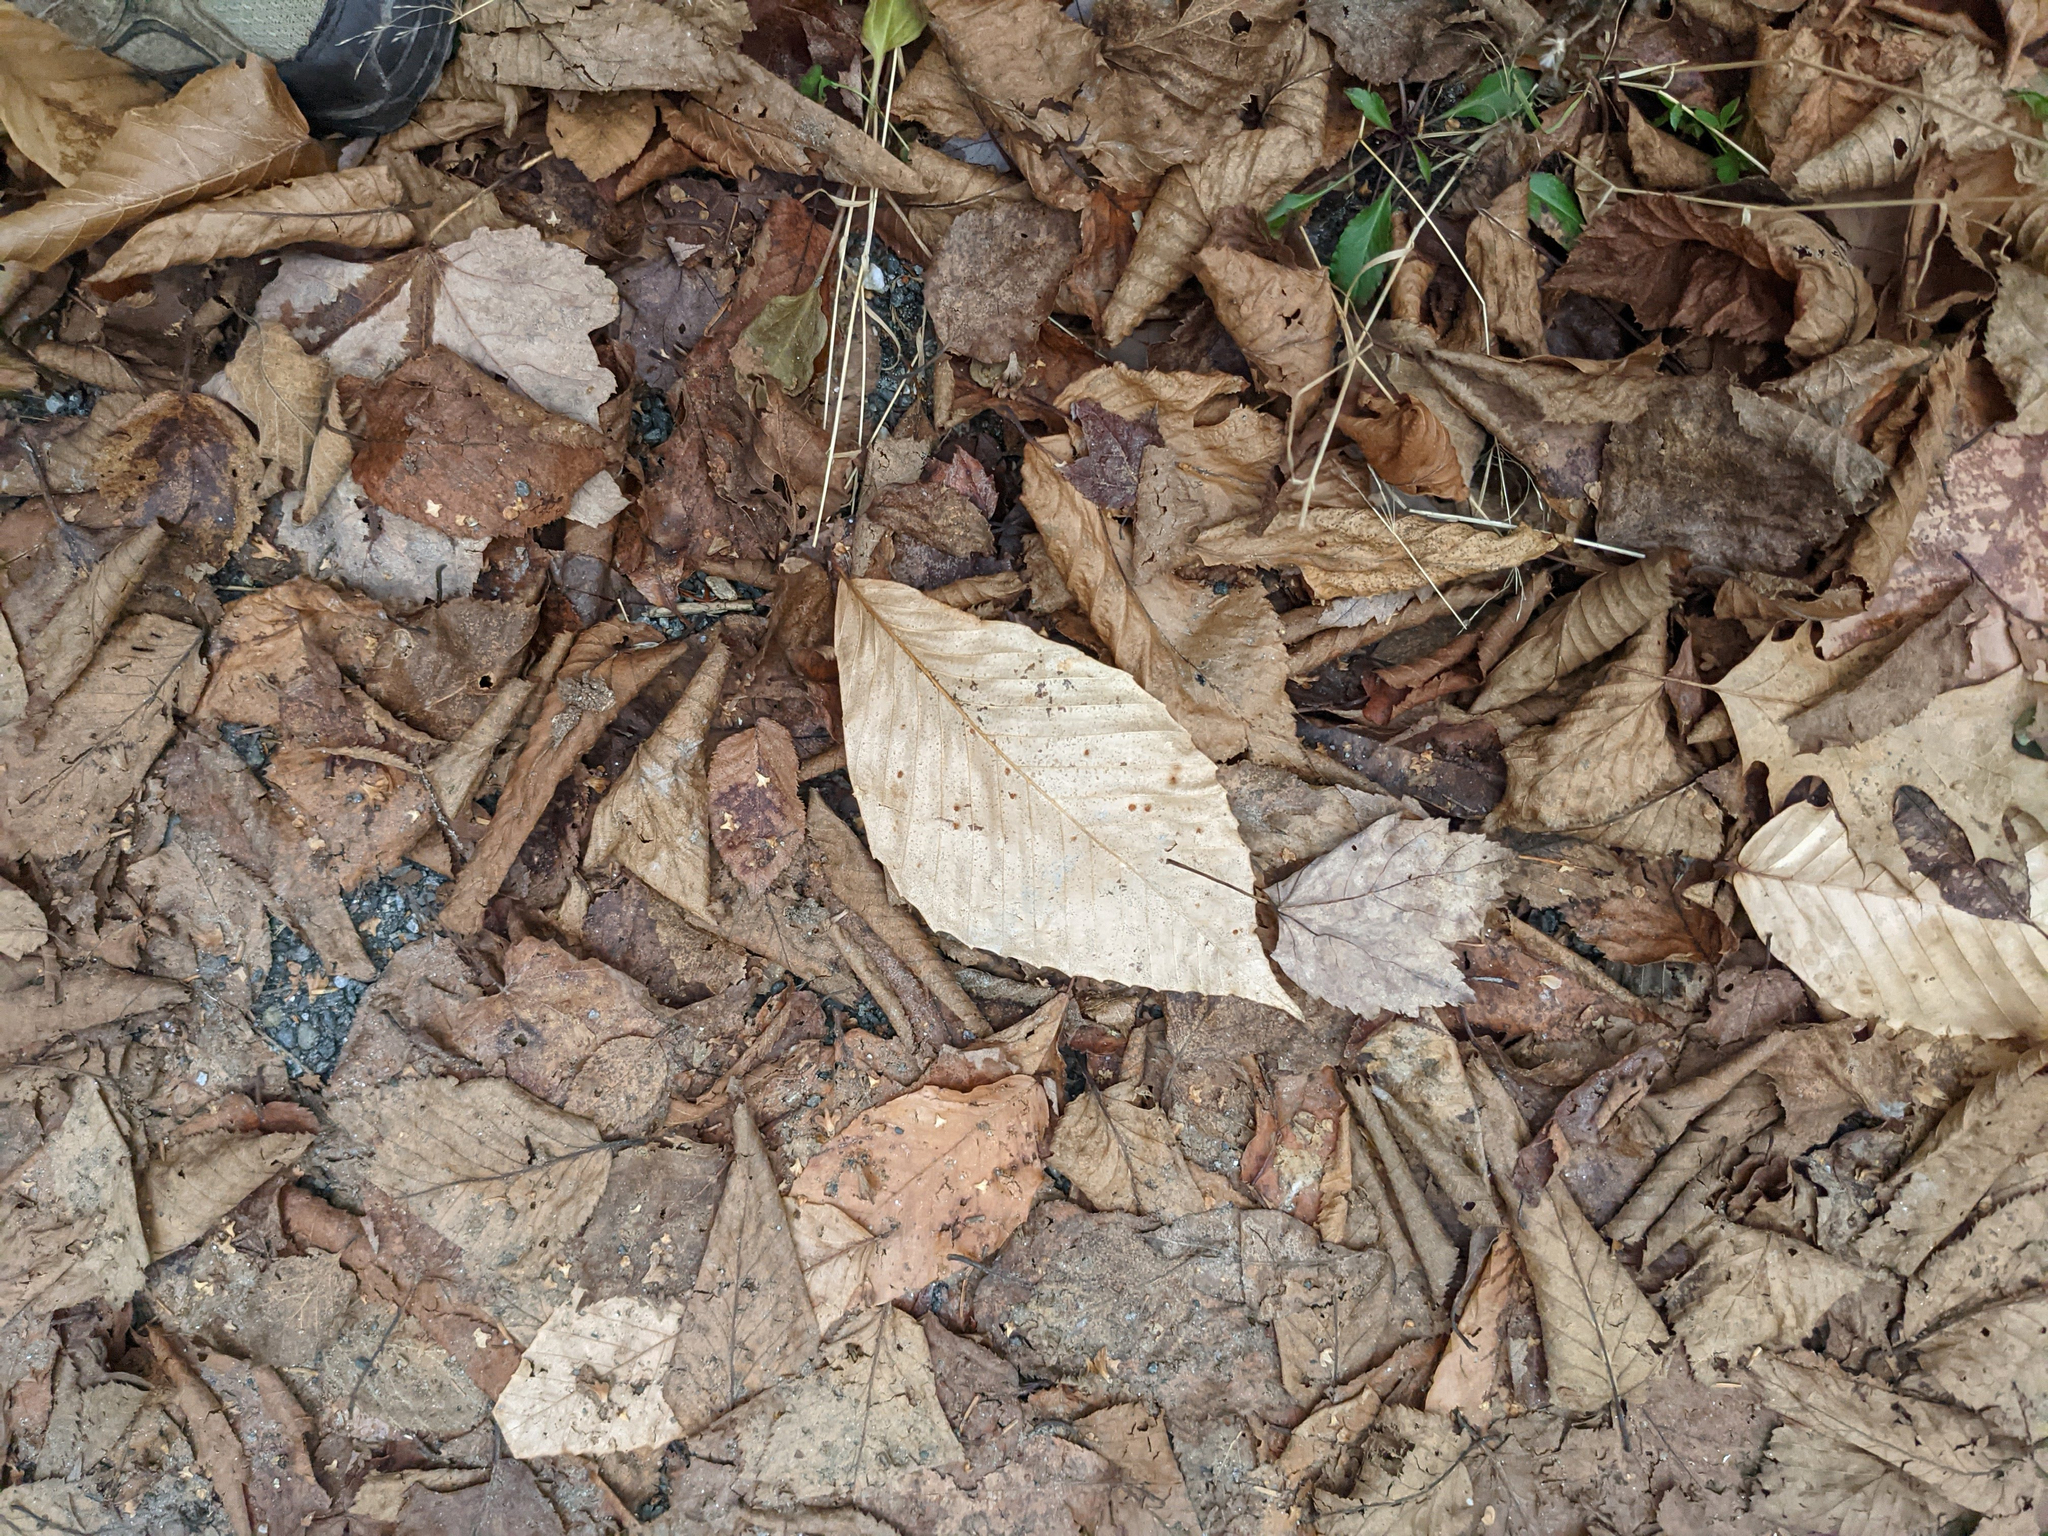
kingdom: Plantae
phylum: Tracheophyta
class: Magnoliopsida
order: Fagales
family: Fagaceae
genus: Fagus
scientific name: Fagus grandifolia
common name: American beech
